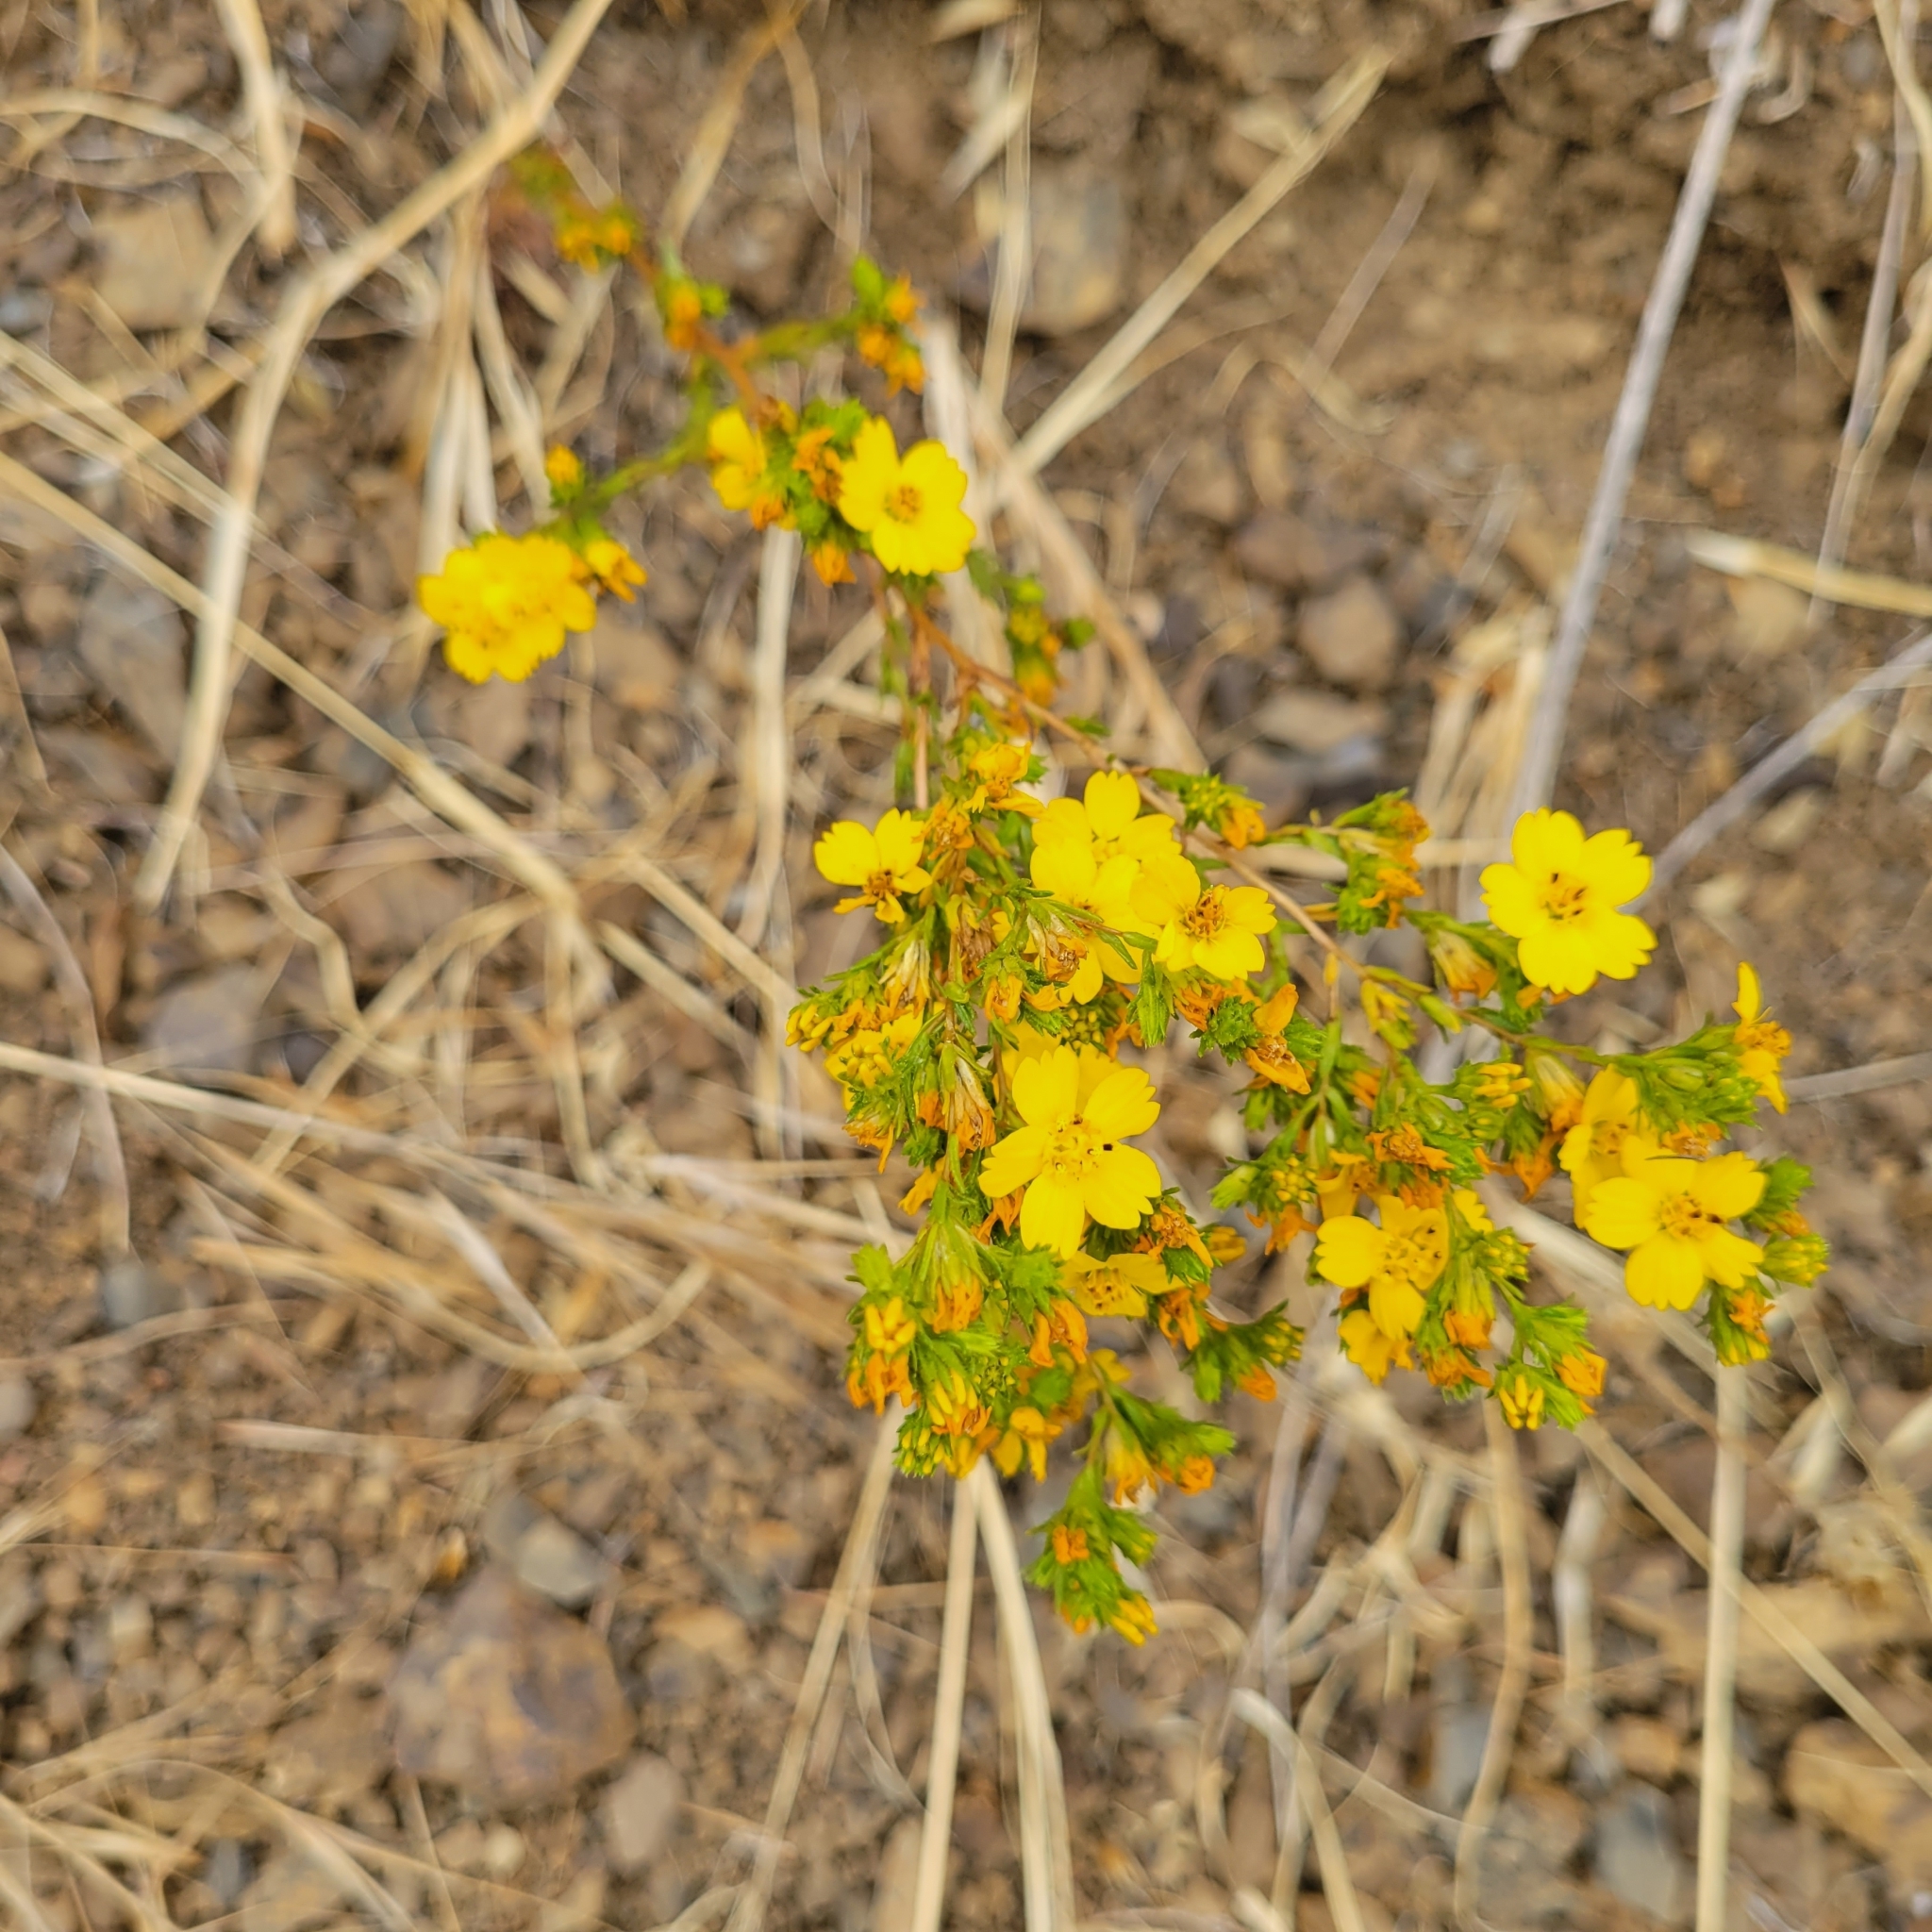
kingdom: Plantae
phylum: Tracheophyta
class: Magnoliopsida
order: Asterales
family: Asteraceae
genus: Deinandra
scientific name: Deinandra fasciculata
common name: Clustered tarweed
